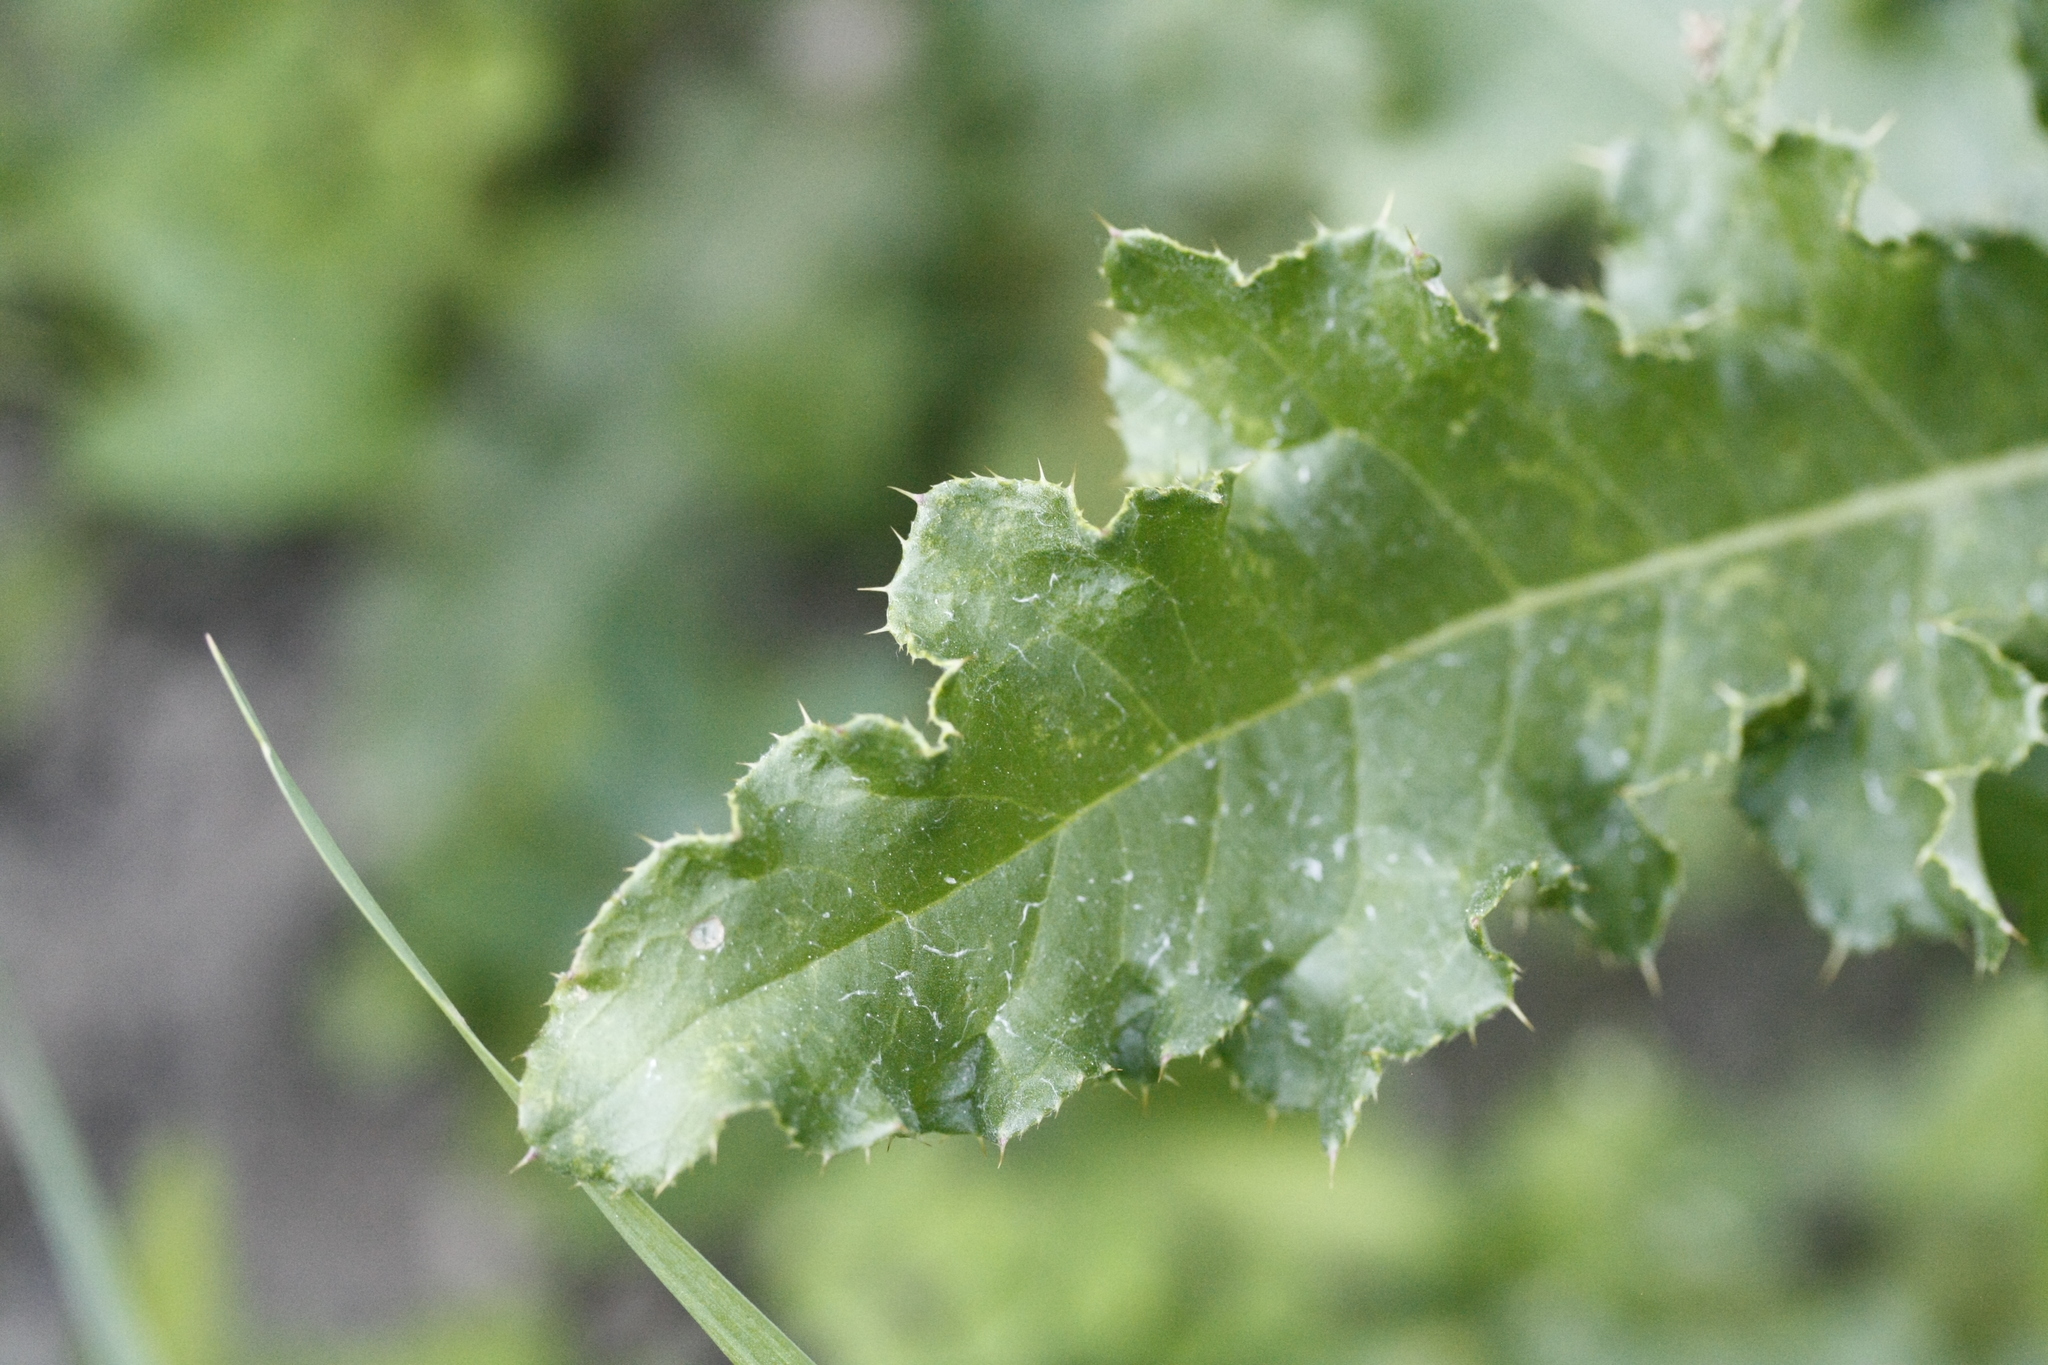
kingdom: Plantae
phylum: Tracheophyta
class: Magnoliopsida
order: Asterales
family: Asteraceae
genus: Cirsium
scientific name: Cirsium arvense
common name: Creeping thistle
